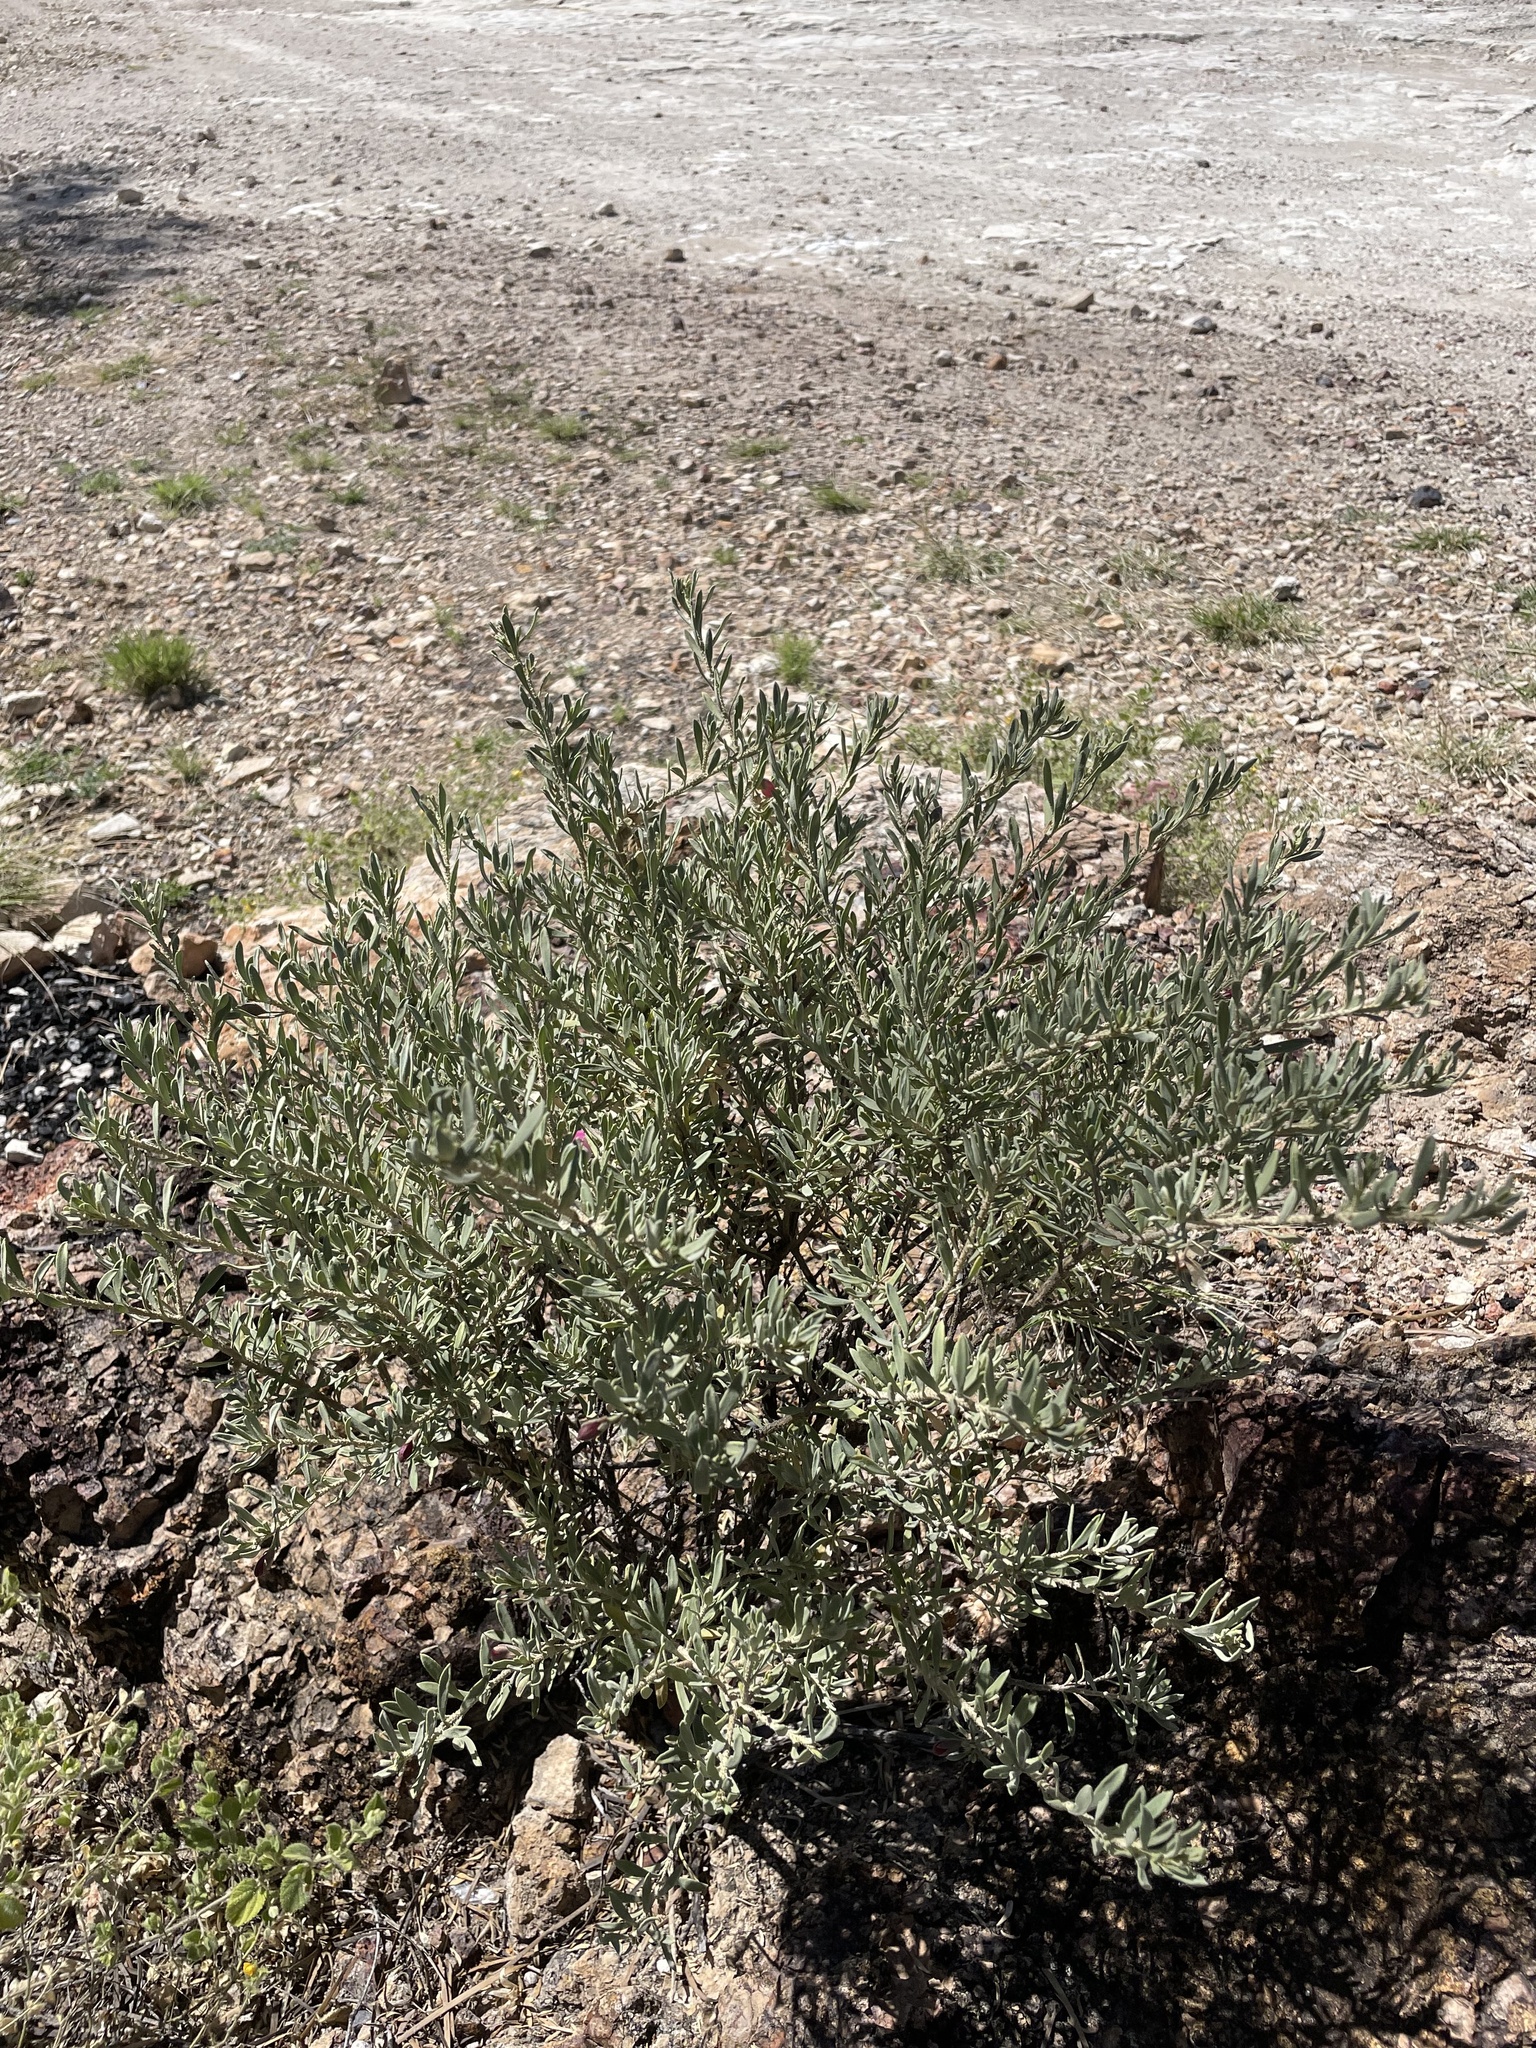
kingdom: Plantae
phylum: Tracheophyta
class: Magnoliopsida
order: Lamiales
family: Scrophulariaceae
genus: Eremophila
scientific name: Eremophila latrobei
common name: Crimson turkeybush
